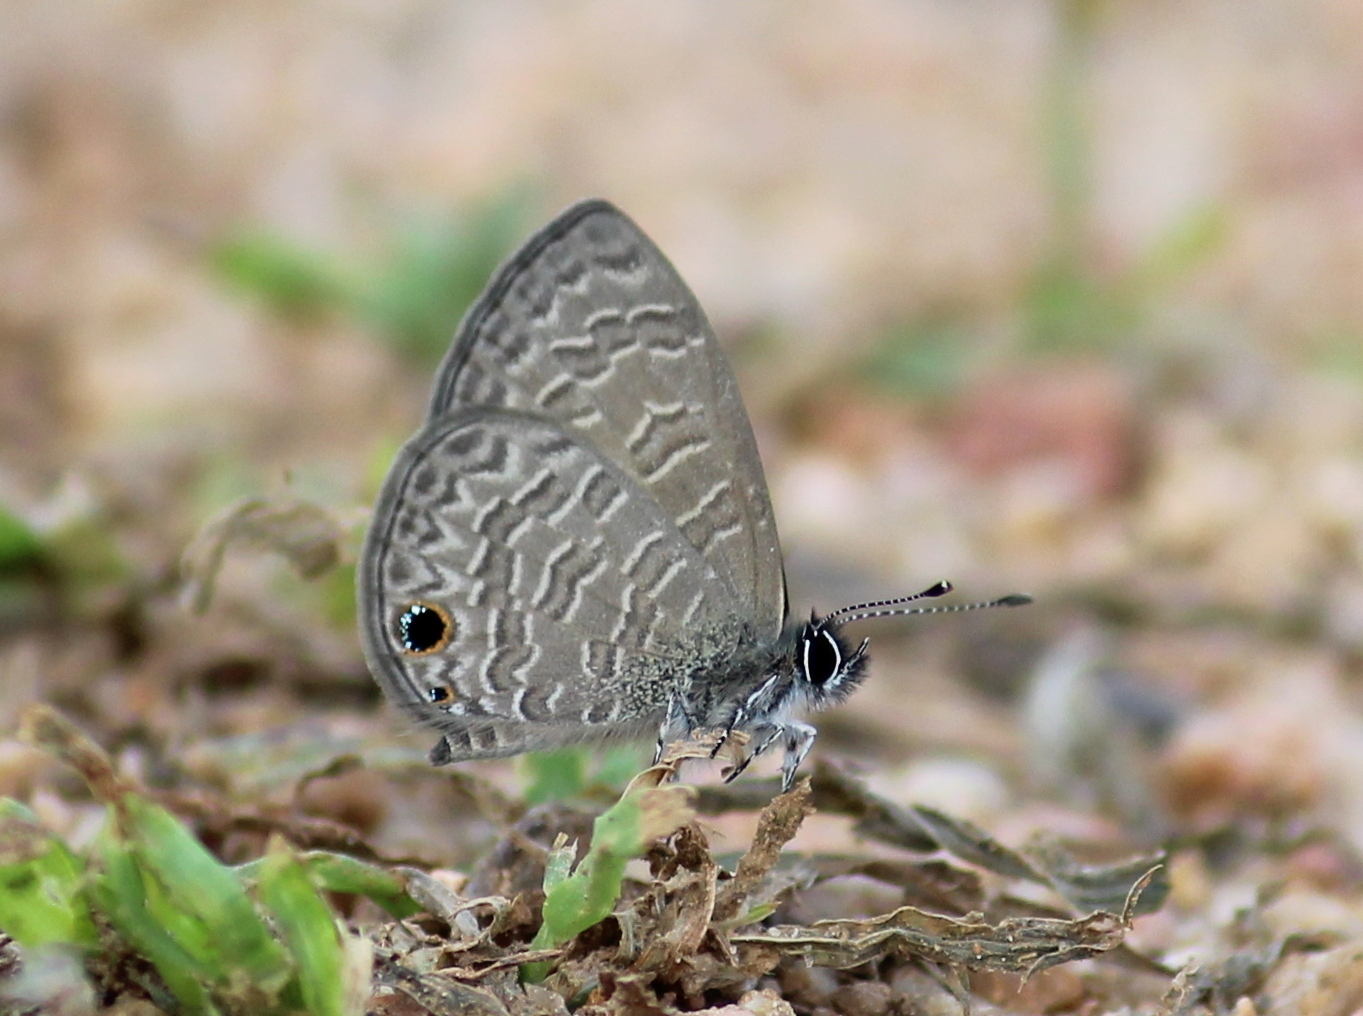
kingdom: Animalia
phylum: Arthropoda
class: Insecta
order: Lepidoptera
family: Lycaenidae
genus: Prosotas
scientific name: Prosotas dubiosa
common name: Tailless lineblue
